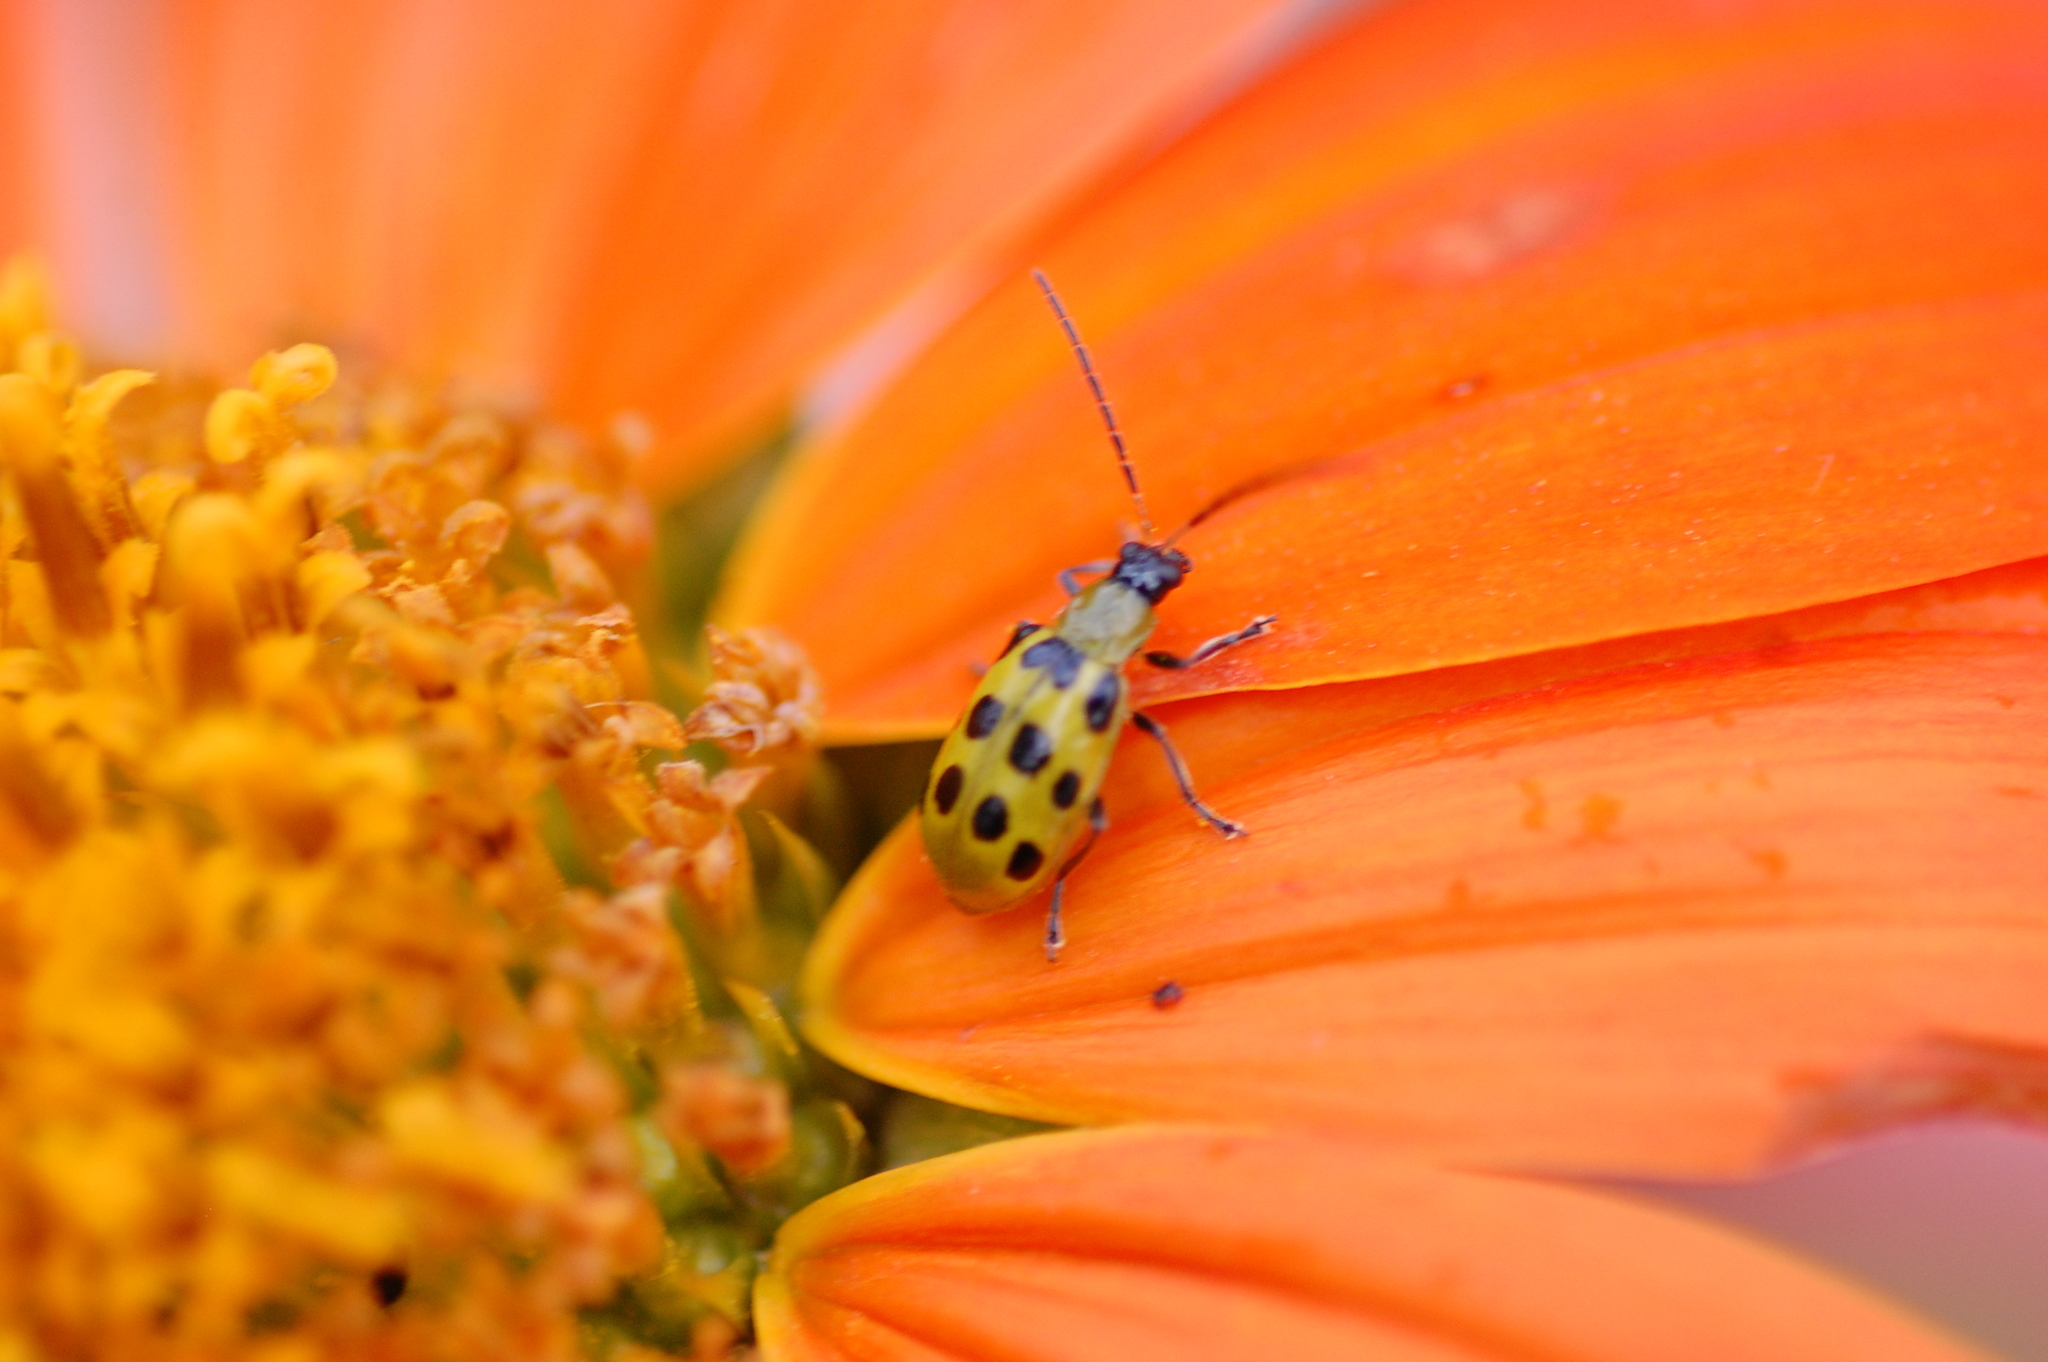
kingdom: Animalia
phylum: Arthropoda
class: Insecta
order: Coleoptera
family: Chrysomelidae
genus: Diabrotica
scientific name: Diabrotica undecimpunctata
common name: Spotted cucumber beetle
